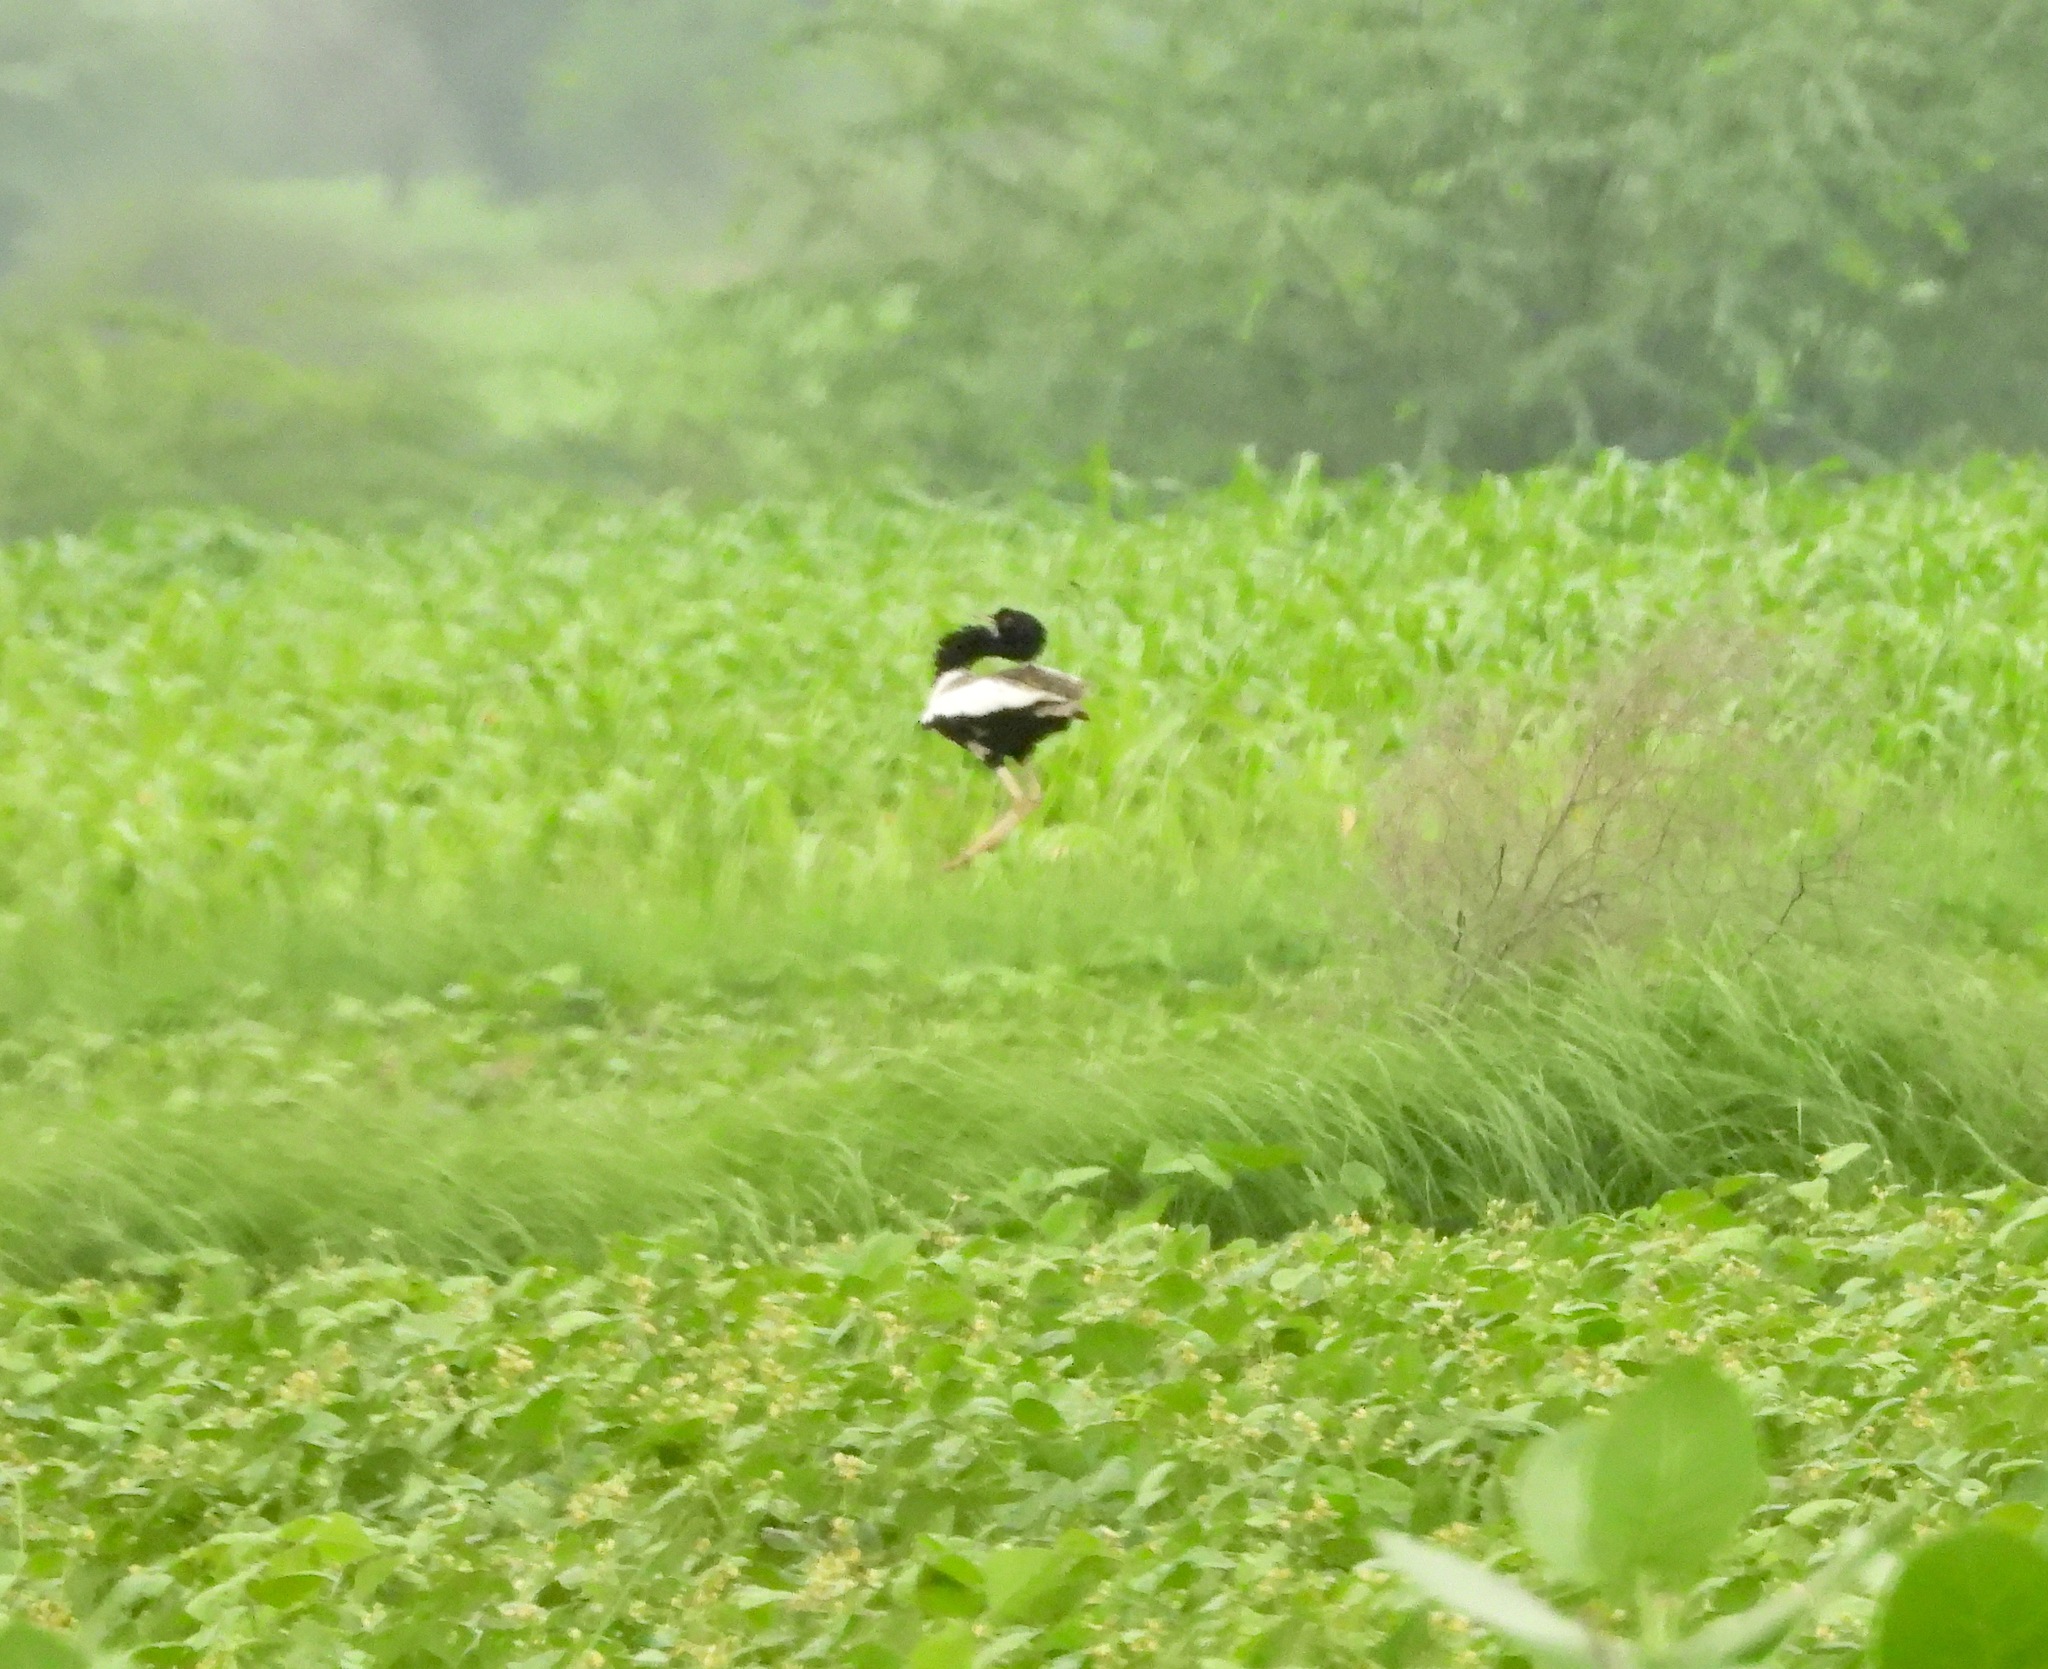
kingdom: Animalia
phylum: Chordata
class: Aves
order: Otidiformes
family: Otididae
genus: Sypheotides
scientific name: Sypheotides indicus
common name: Lesser florican
